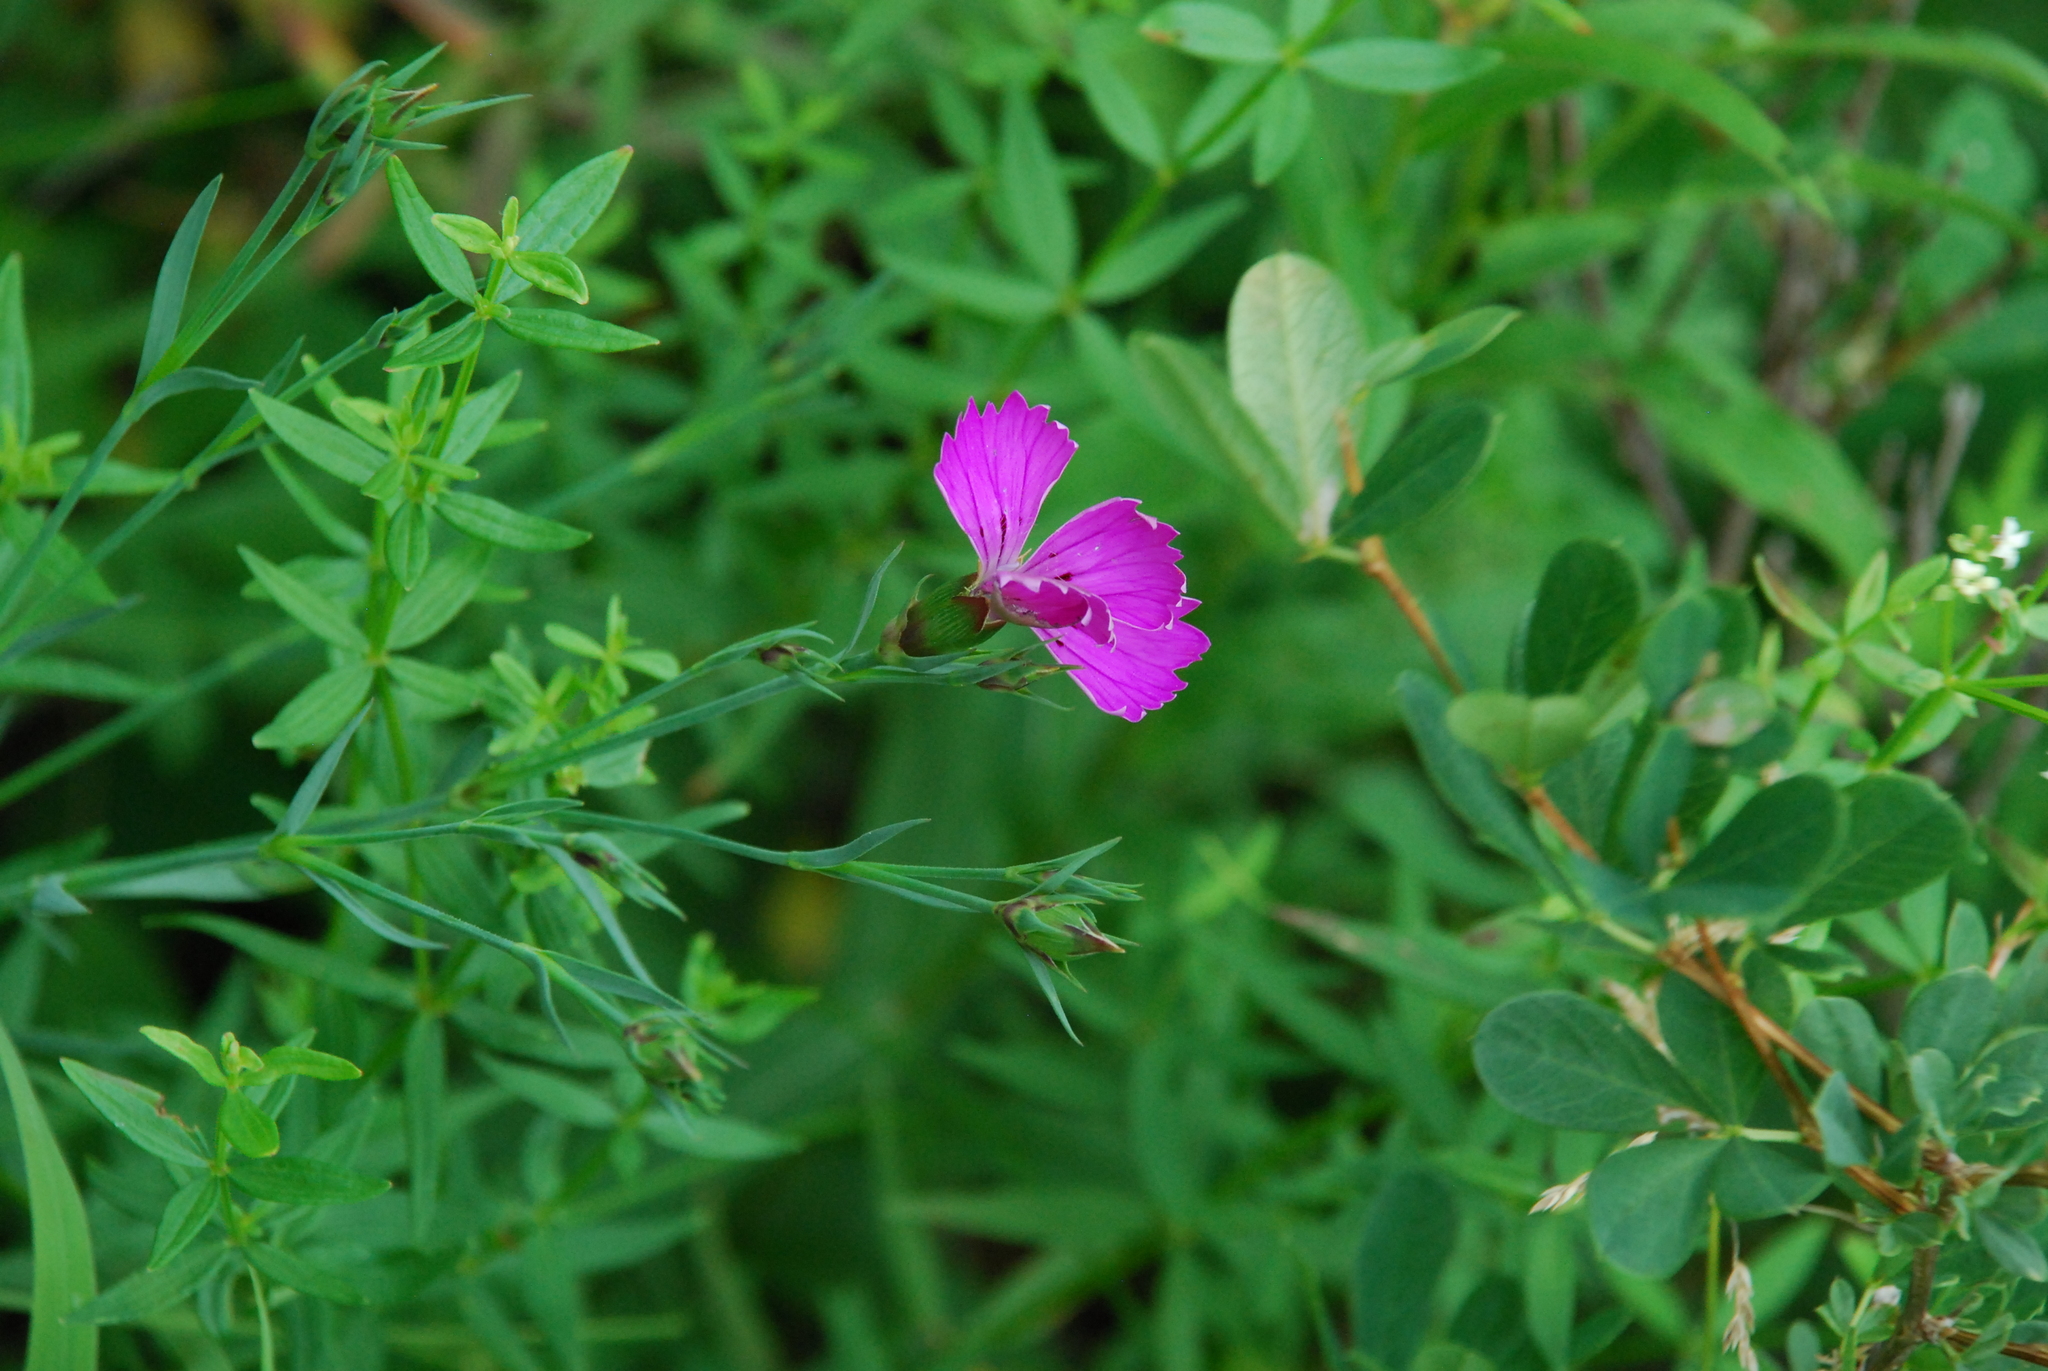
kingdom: Plantae
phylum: Tracheophyta
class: Magnoliopsida
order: Caryophyllales
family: Caryophyllaceae
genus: Dianthus
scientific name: Dianthus chinensis
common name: Rainbow pink
